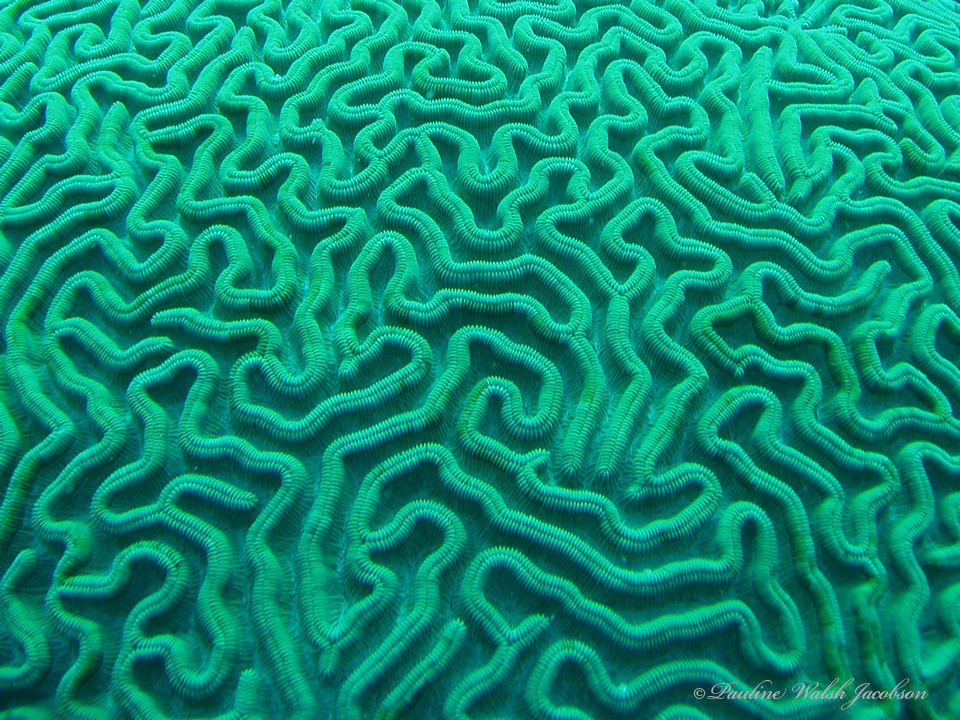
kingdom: Animalia
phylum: Cnidaria
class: Anthozoa
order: Scleractinia
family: Faviidae
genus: Colpophyllia
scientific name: Colpophyllia natans
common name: Boulder brain coral
